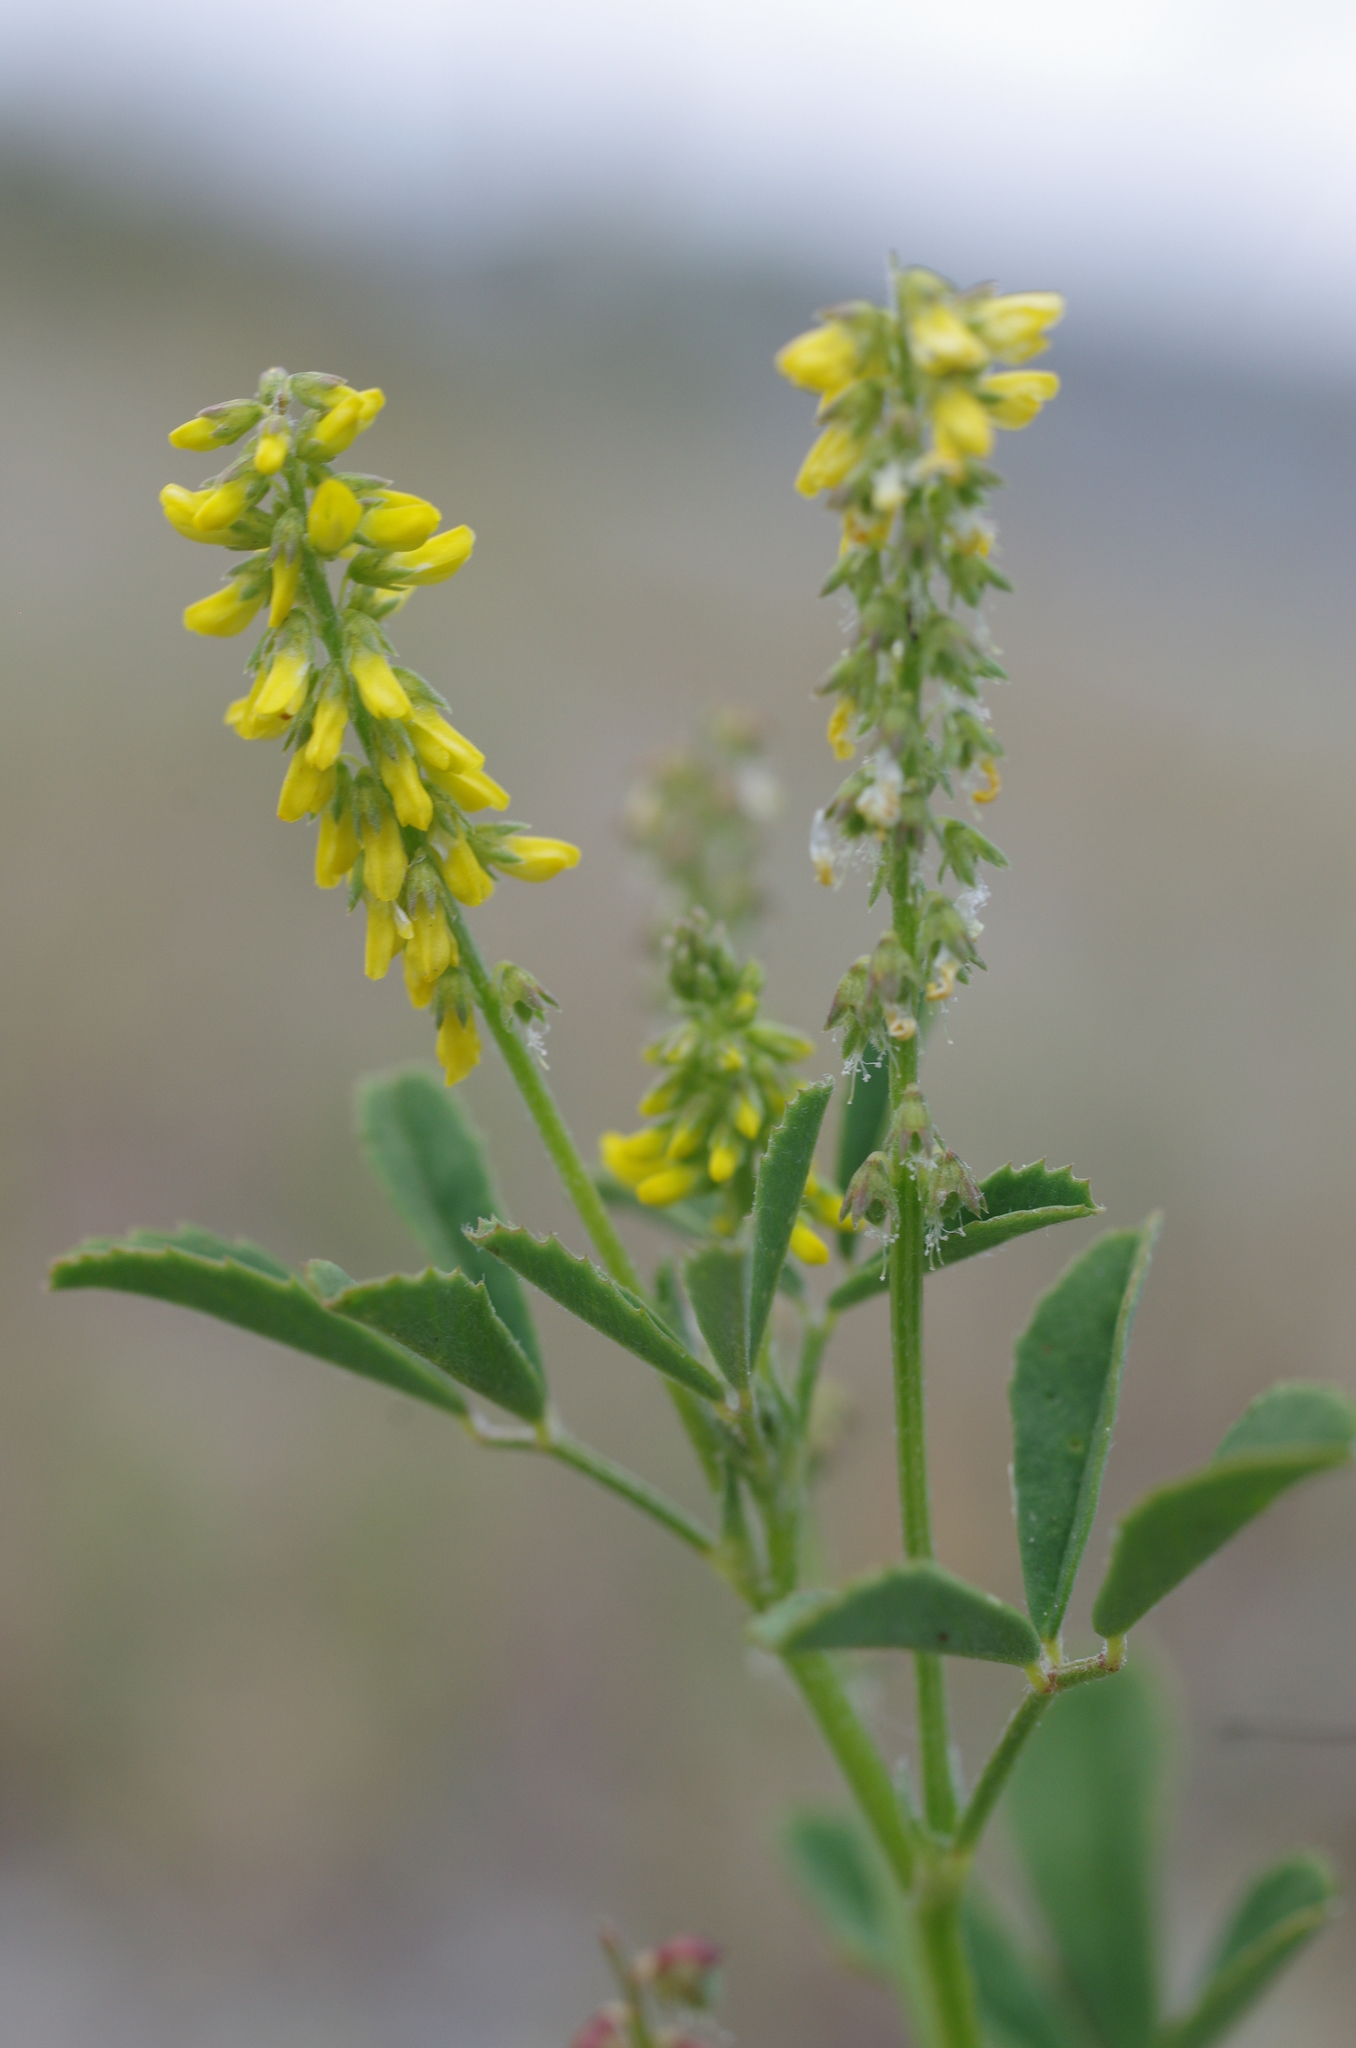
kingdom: Plantae
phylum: Tracheophyta
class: Magnoliopsida
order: Fabales
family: Fabaceae
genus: Melilotus
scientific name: Melilotus indicus
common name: Small melilot
